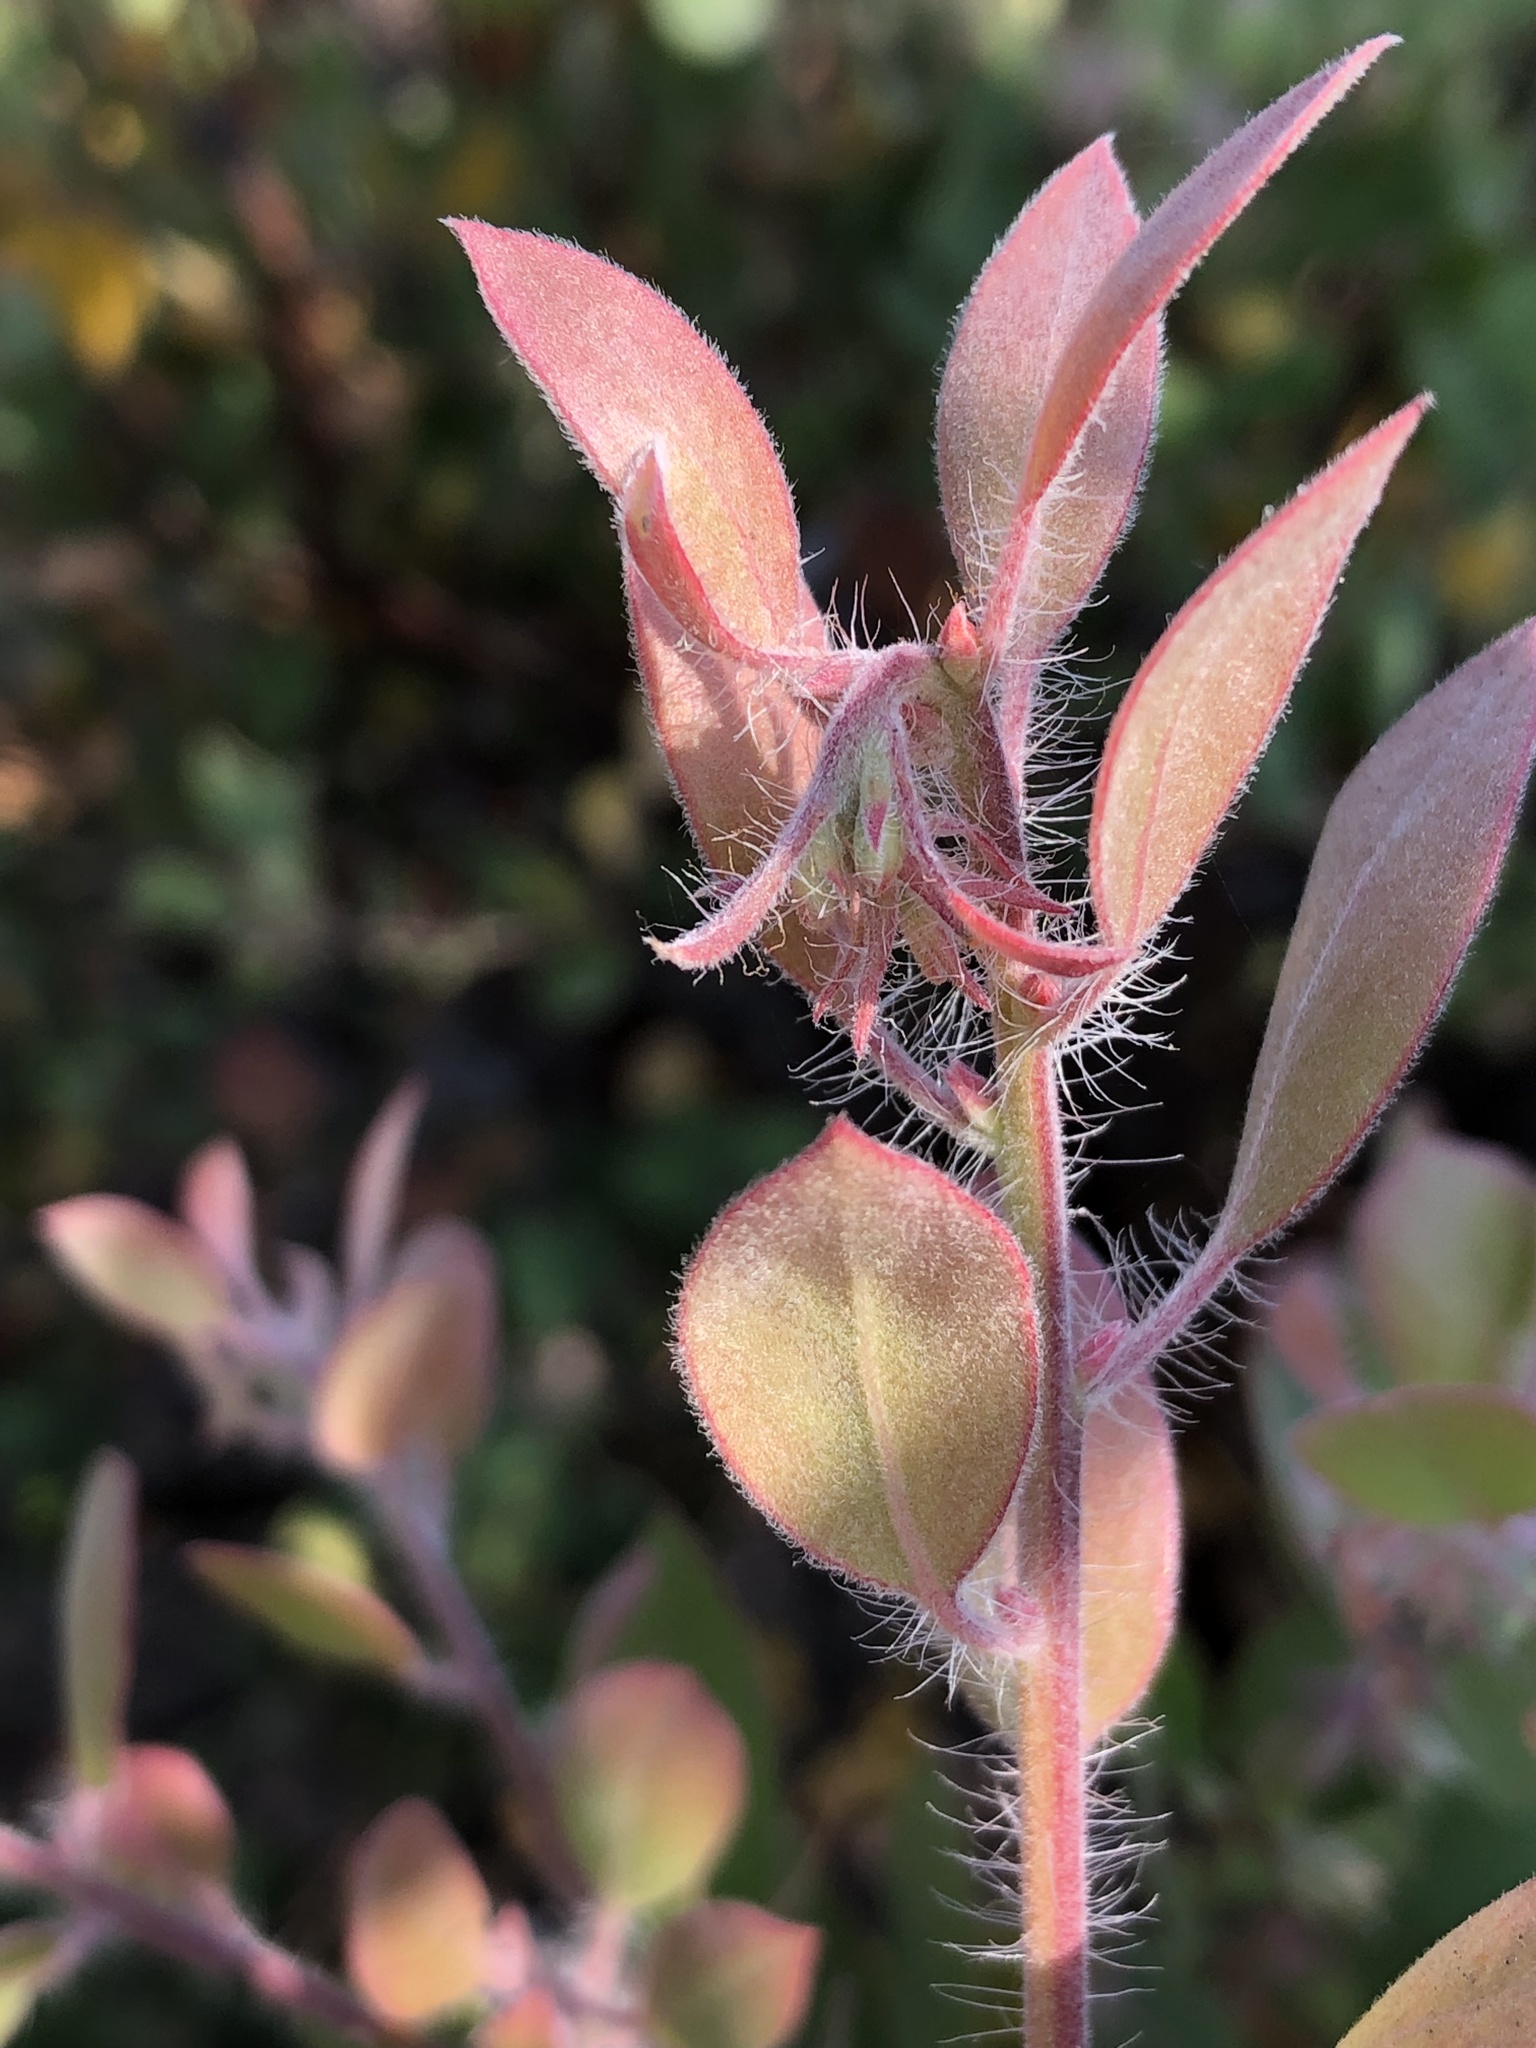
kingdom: Plantae
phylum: Tracheophyta
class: Magnoliopsida
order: Ericales
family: Ericaceae
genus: Arctostaphylos
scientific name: Arctostaphylos pilosula
